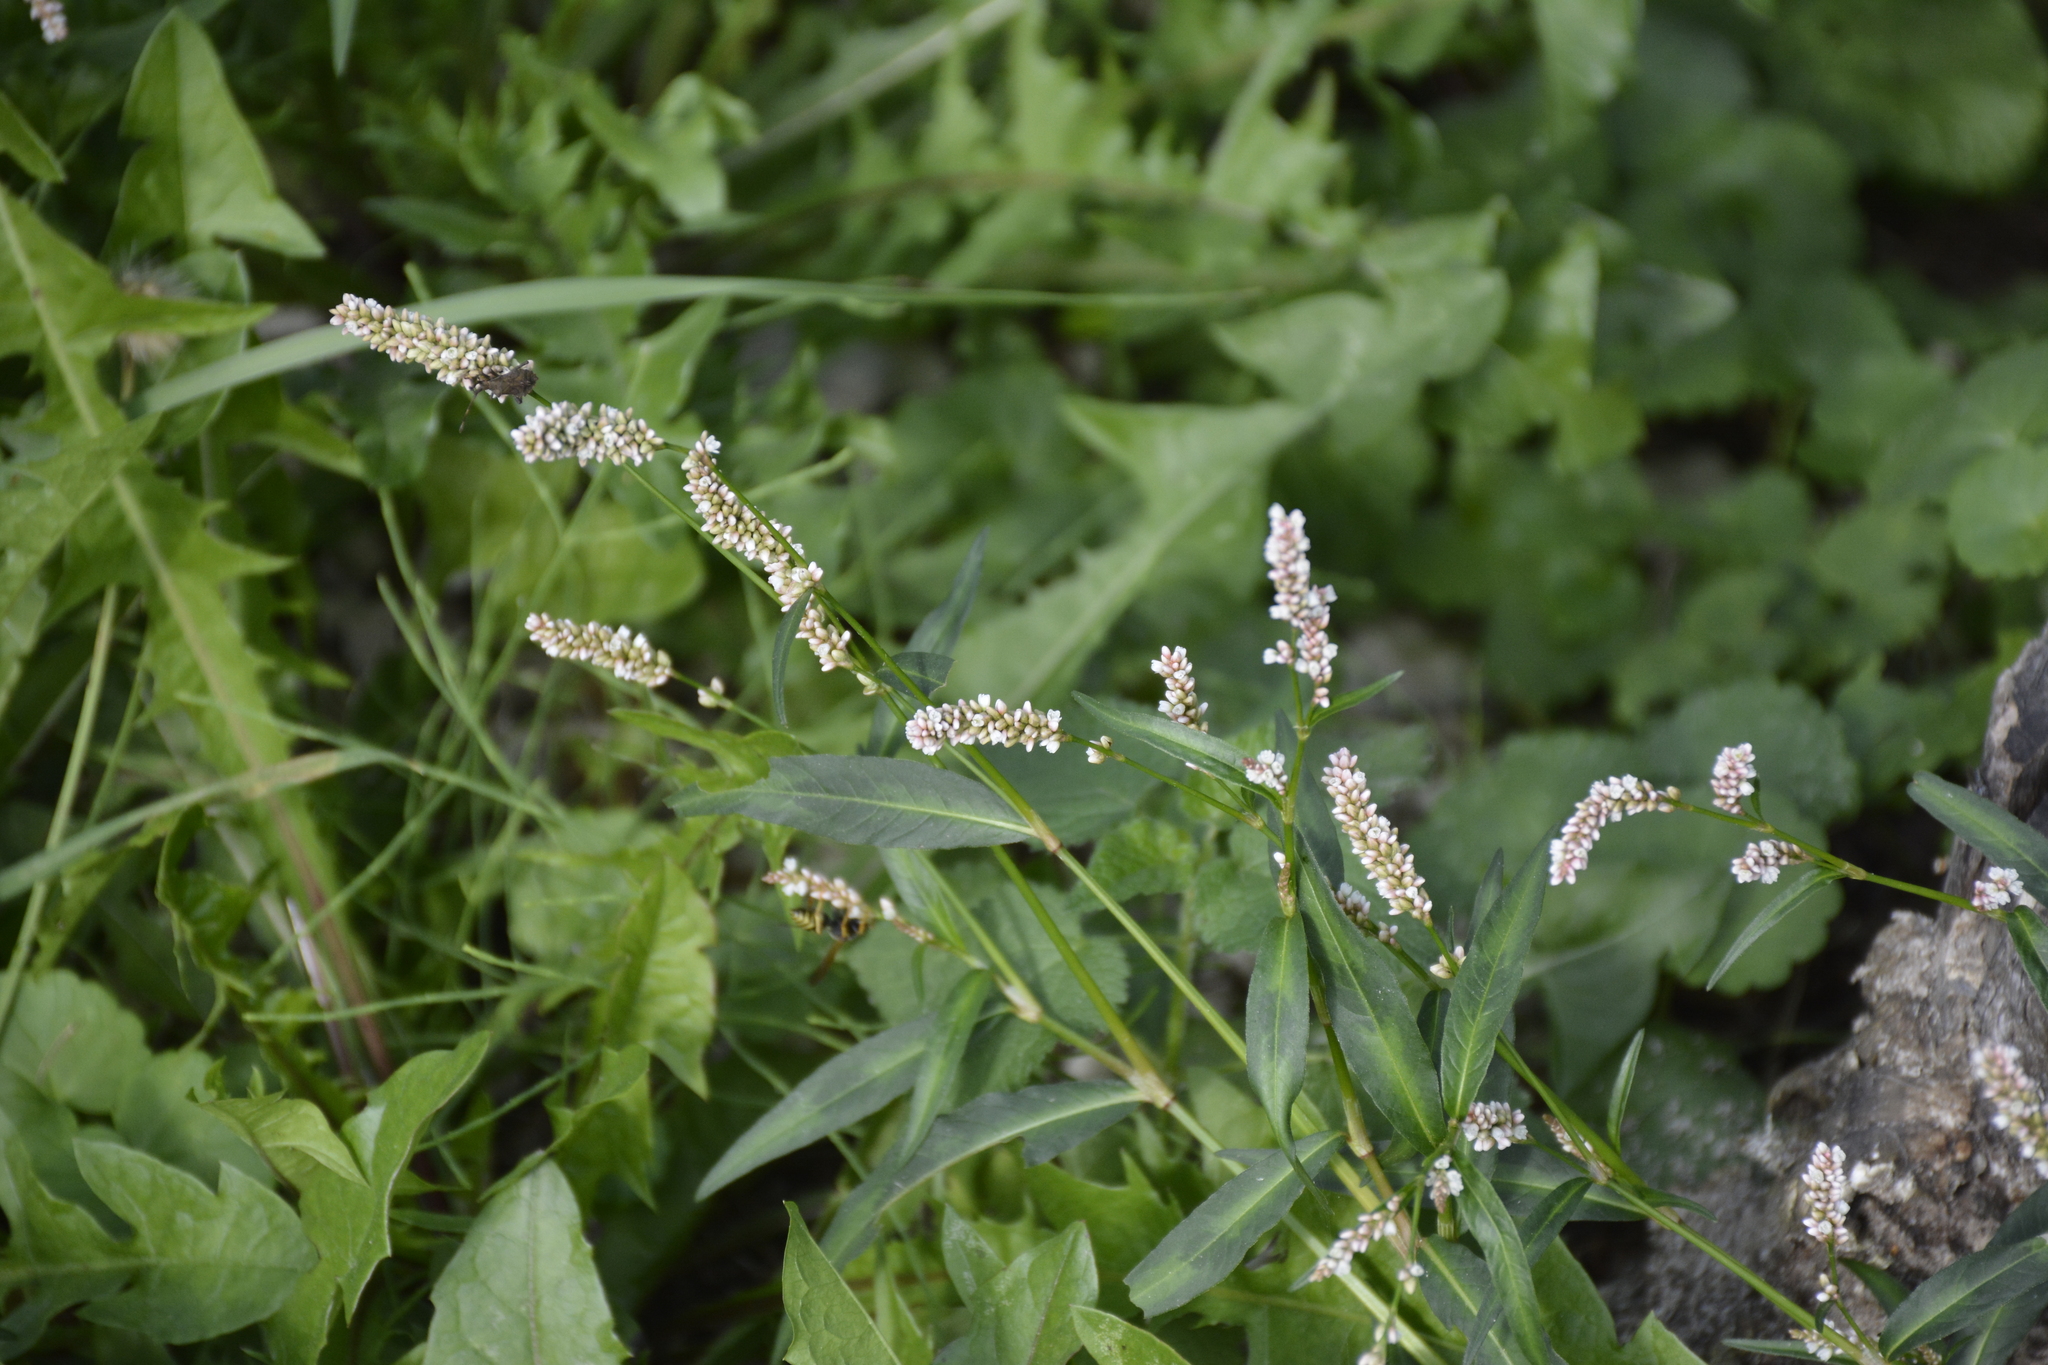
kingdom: Plantae
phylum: Tracheophyta
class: Magnoliopsida
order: Caryophyllales
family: Polygonaceae
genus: Persicaria
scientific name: Persicaria maculosa
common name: Redshank
